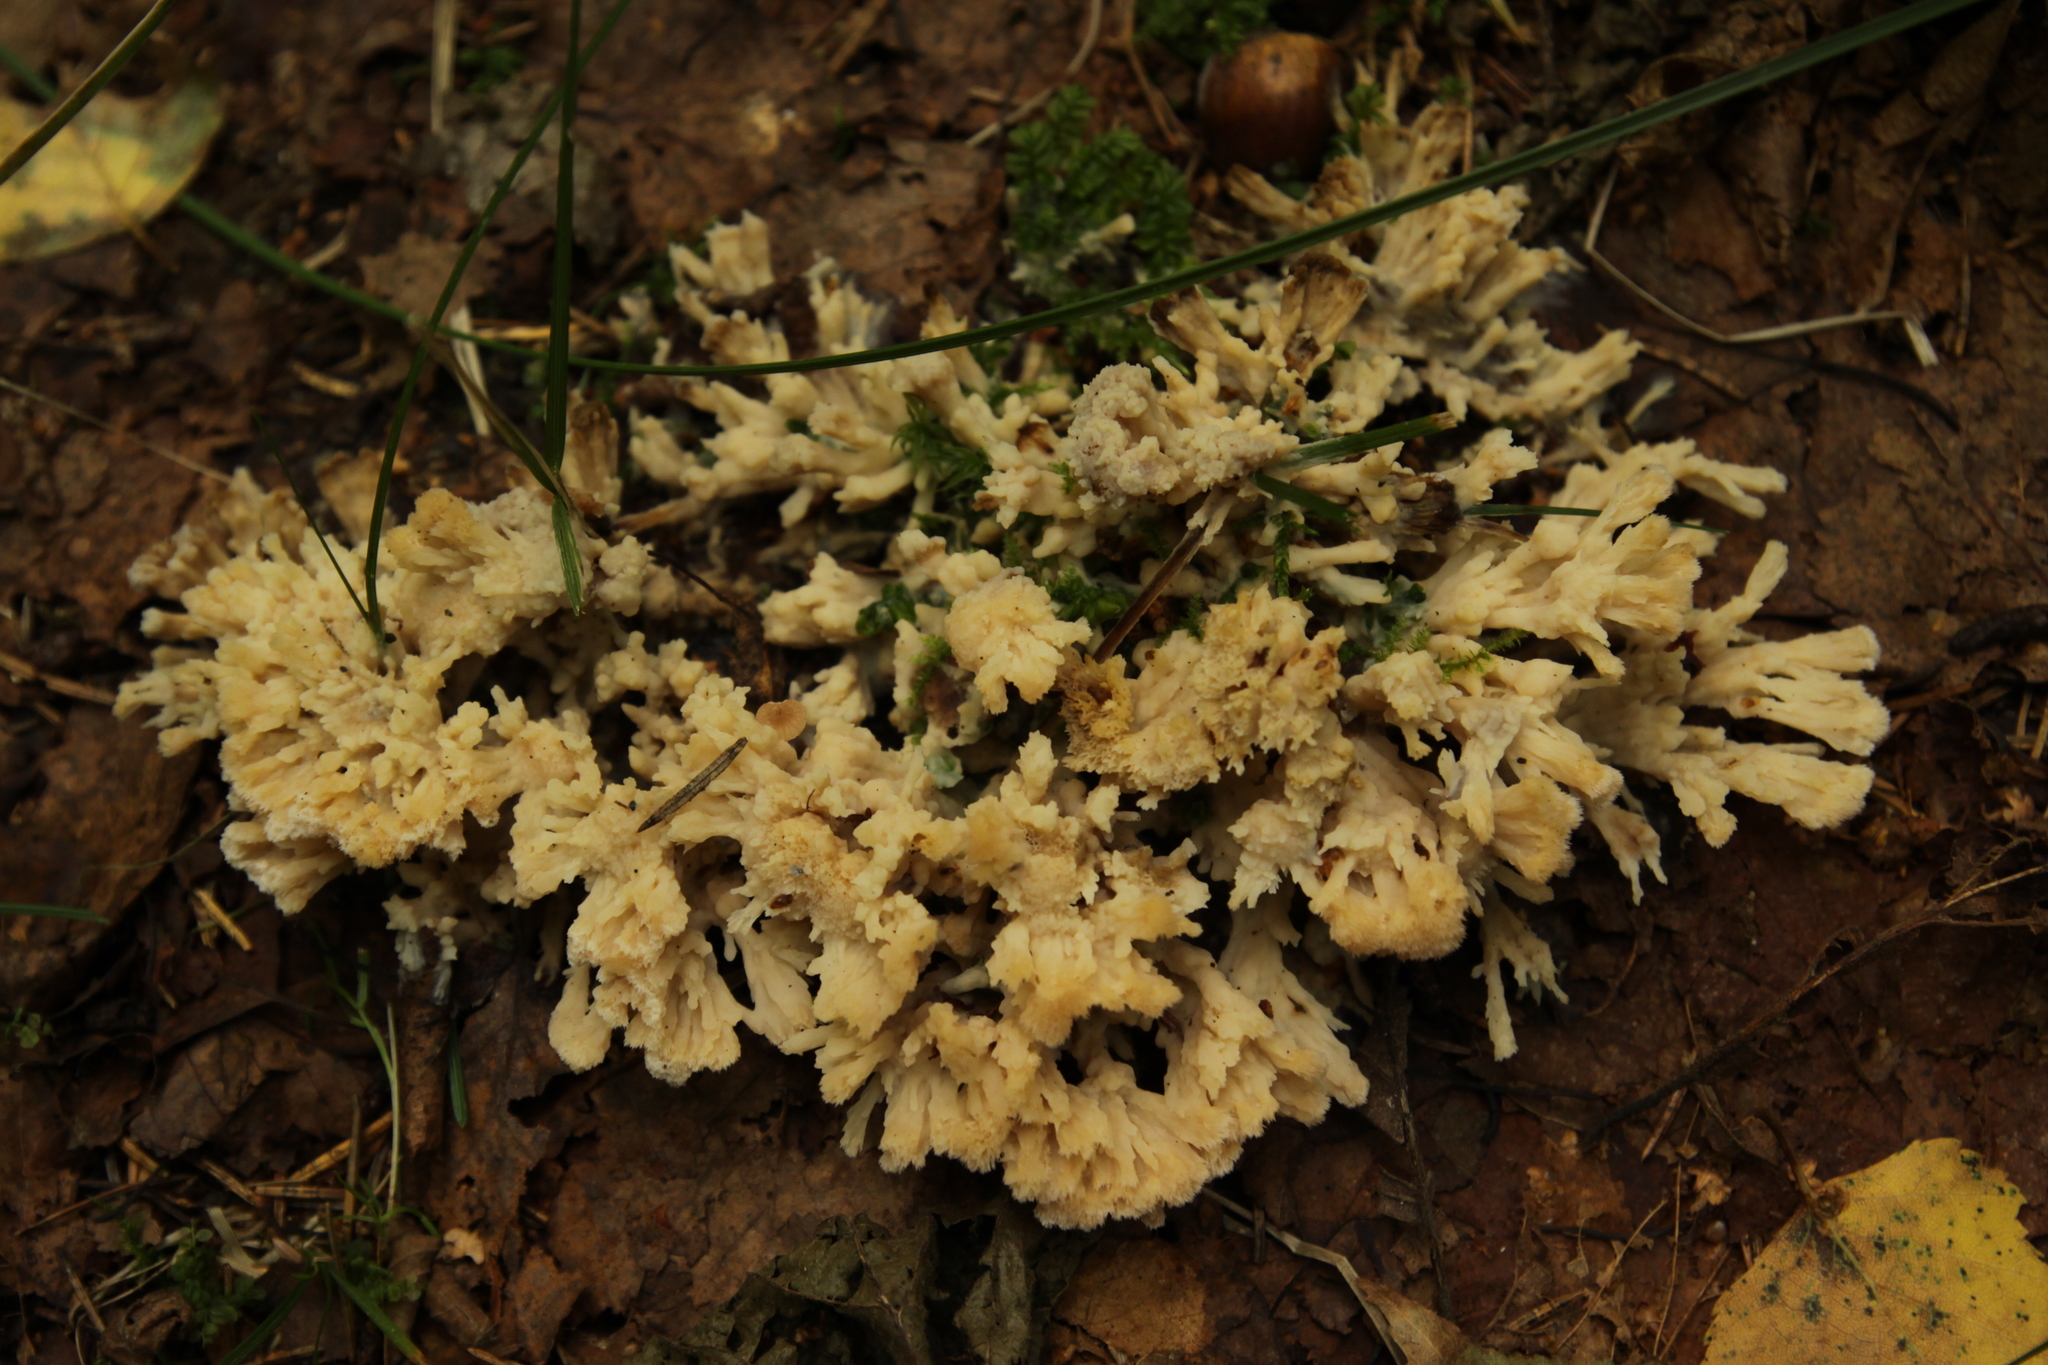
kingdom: Fungi
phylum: Basidiomycota
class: Agaricomycetes
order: Sebacinales
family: Sebacinaceae
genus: Sebacina
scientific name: Sebacina incrustans
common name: Enveloping crust
